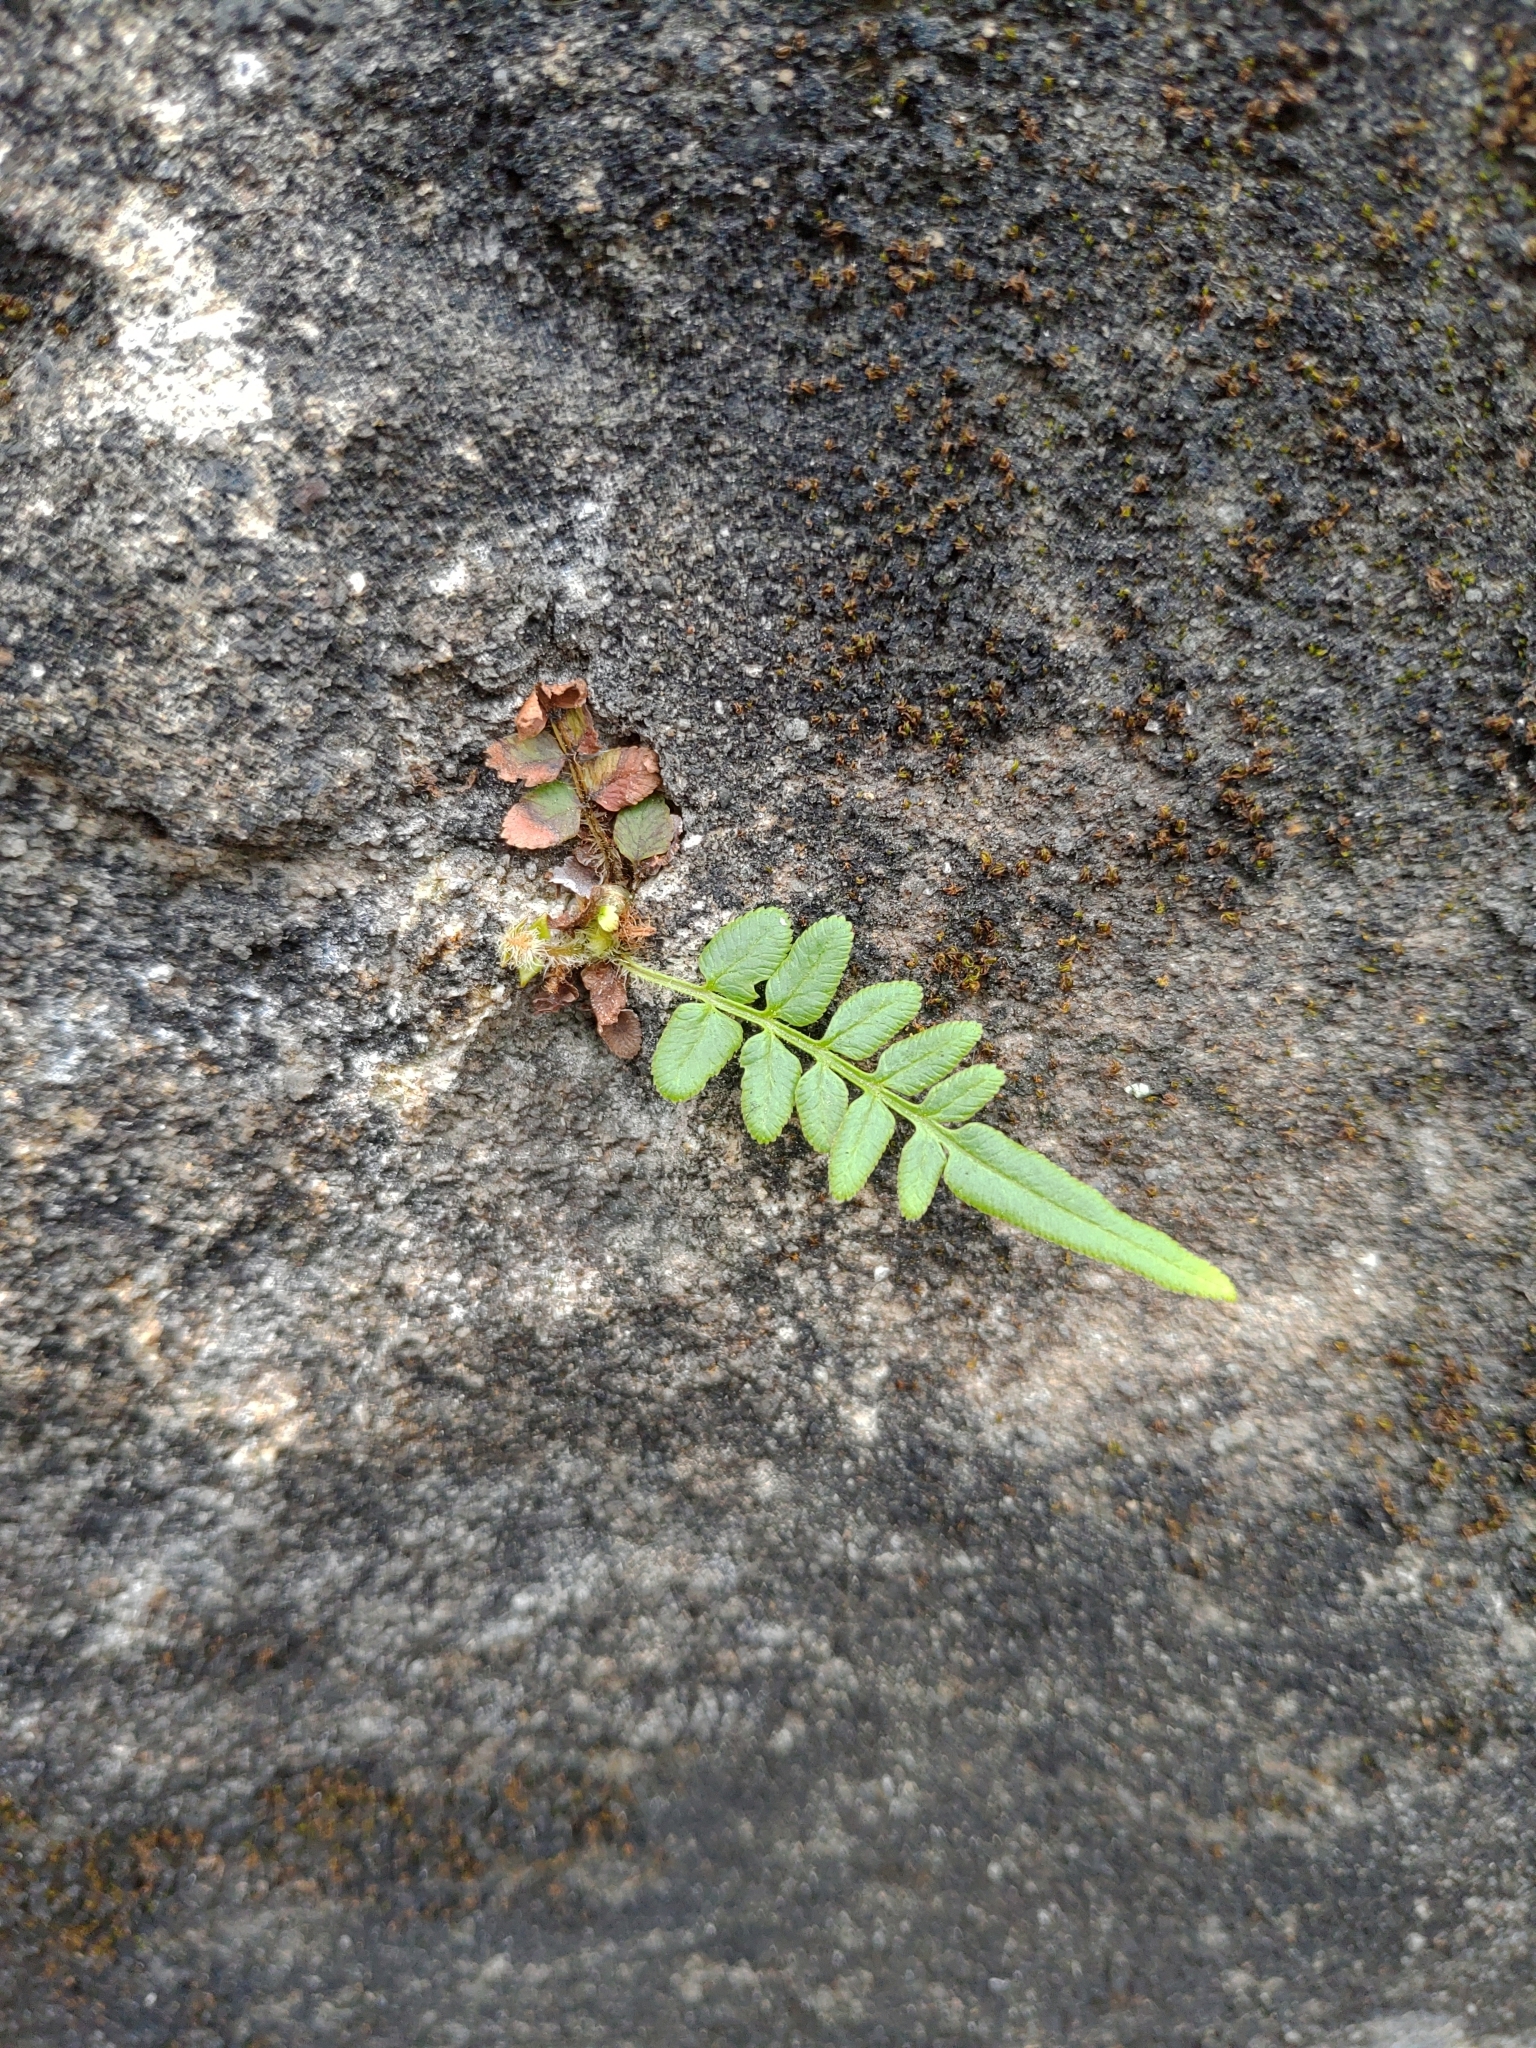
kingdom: Plantae
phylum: Tracheophyta
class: Polypodiopsida
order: Polypodiales
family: Pteridaceae
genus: Pteris
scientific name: Pteris vittata
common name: Ladder brake
